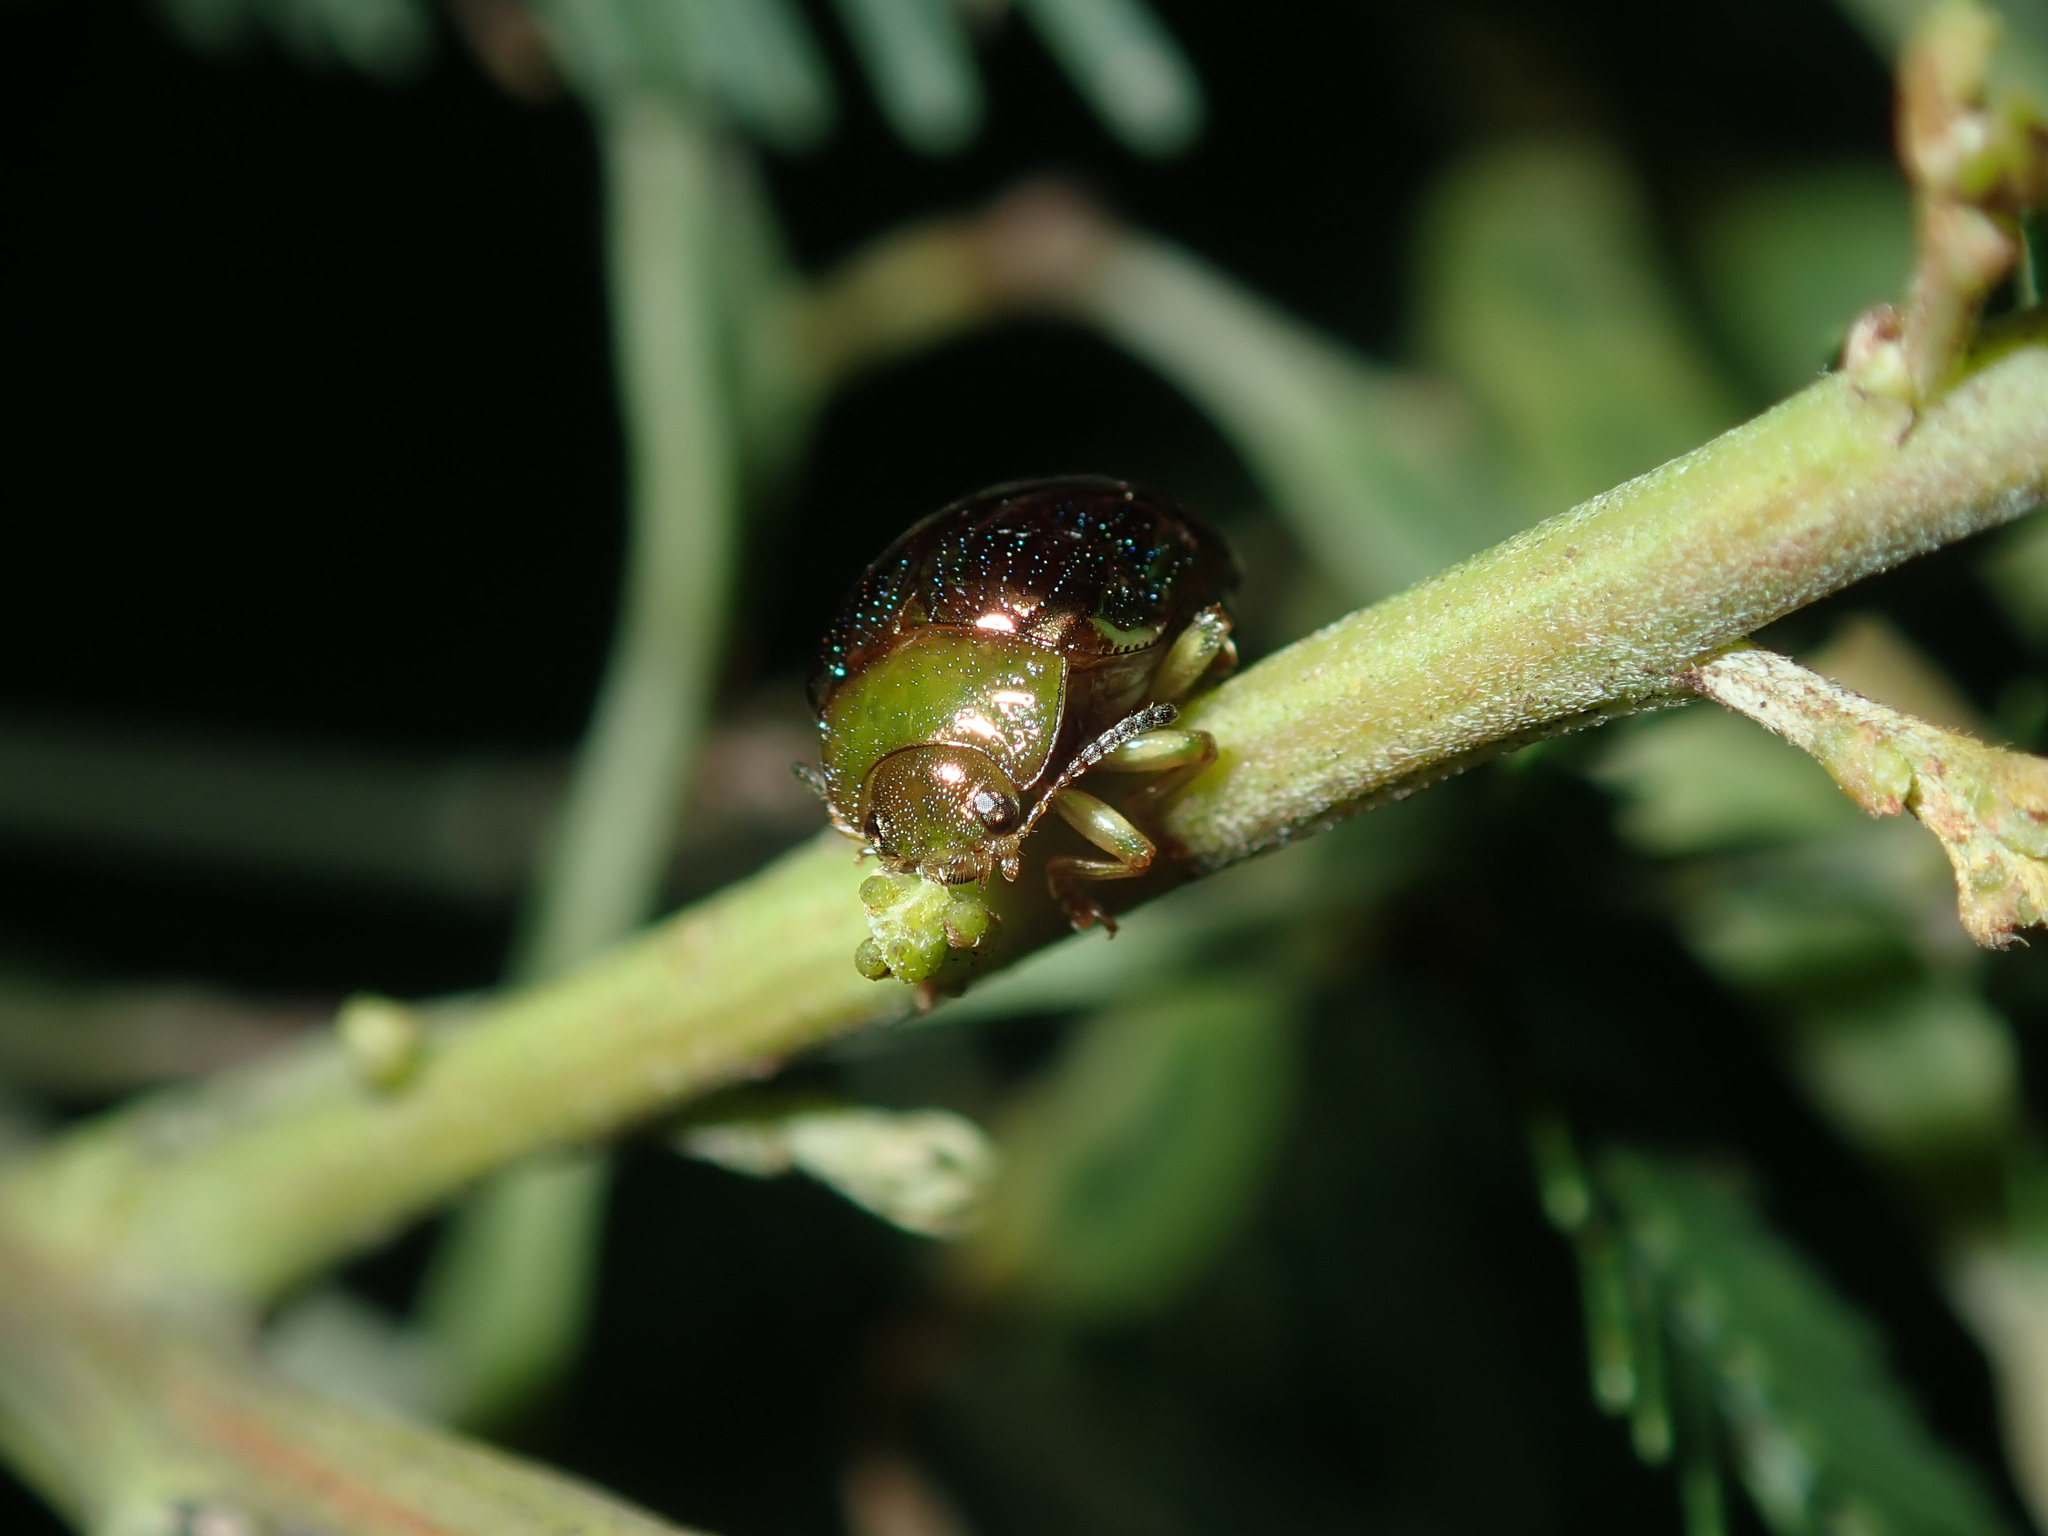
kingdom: Animalia
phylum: Arthropoda
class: Insecta
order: Coleoptera
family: Chrysomelidae
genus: Calomela
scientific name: Calomela
